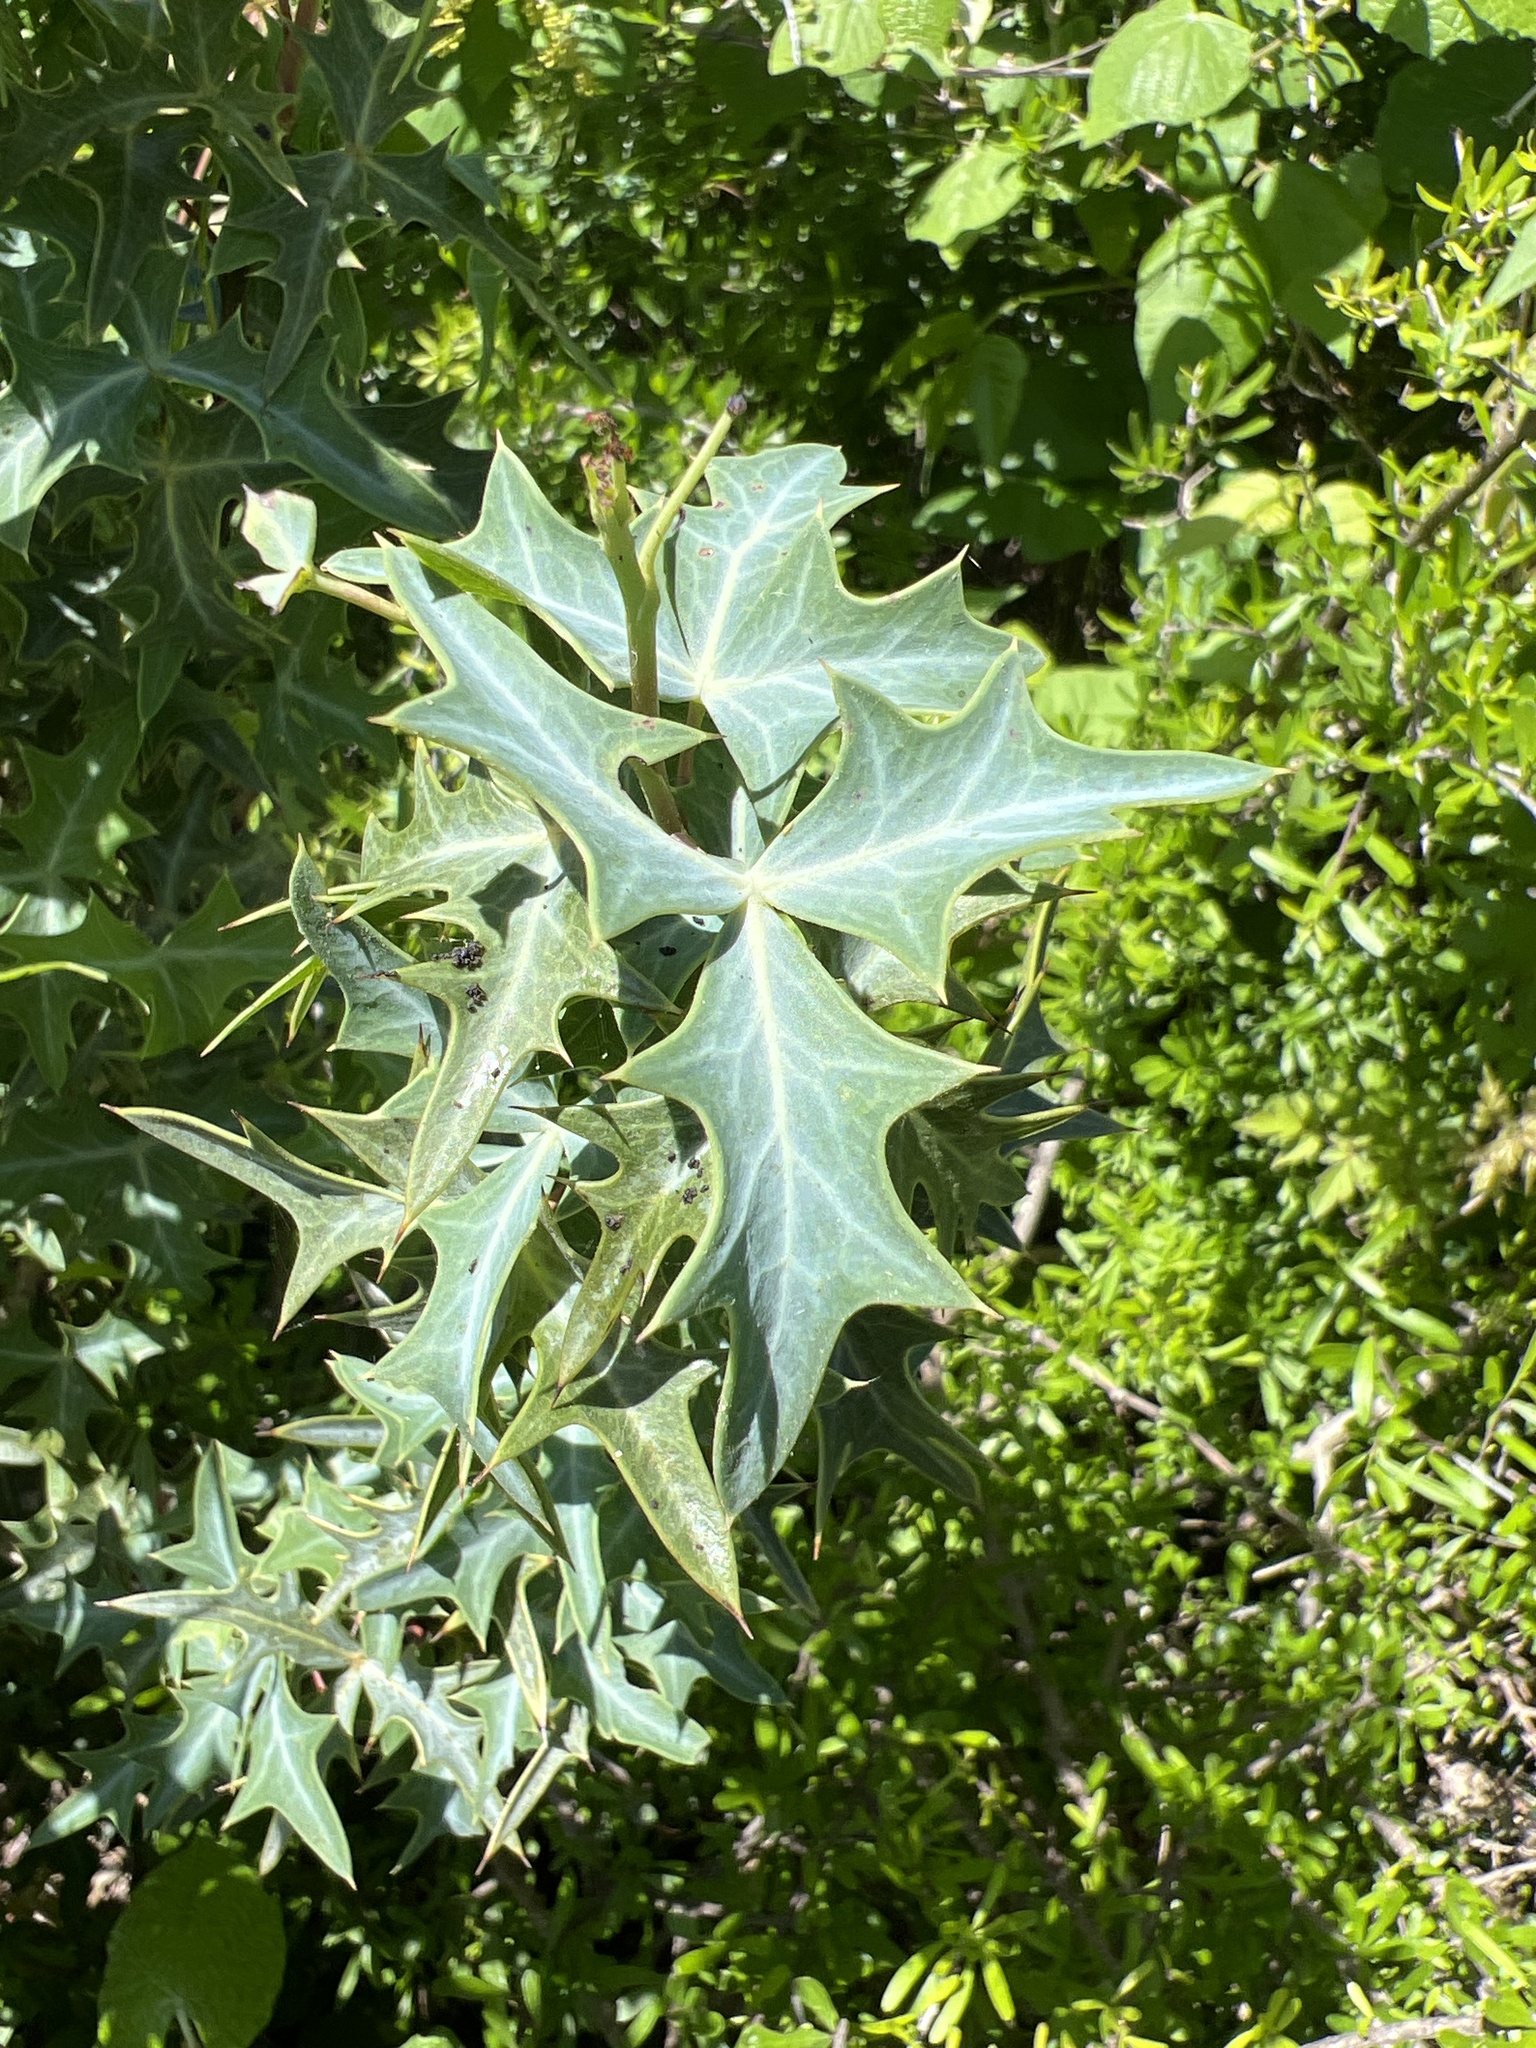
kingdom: Plantae
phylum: Tracheophyta
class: Magnoliopsida
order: Ranunculales
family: Berberidaceae
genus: Alloberberis
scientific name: Alloberberis trifoliolata
